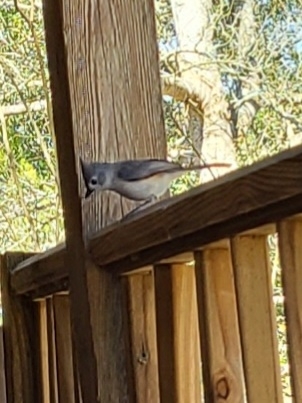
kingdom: Animalia
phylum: Chordata
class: Aves
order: Passeriformes
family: Paridae
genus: Baeolophus
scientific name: Baeolophus bicolor
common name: Tufted titmouse
